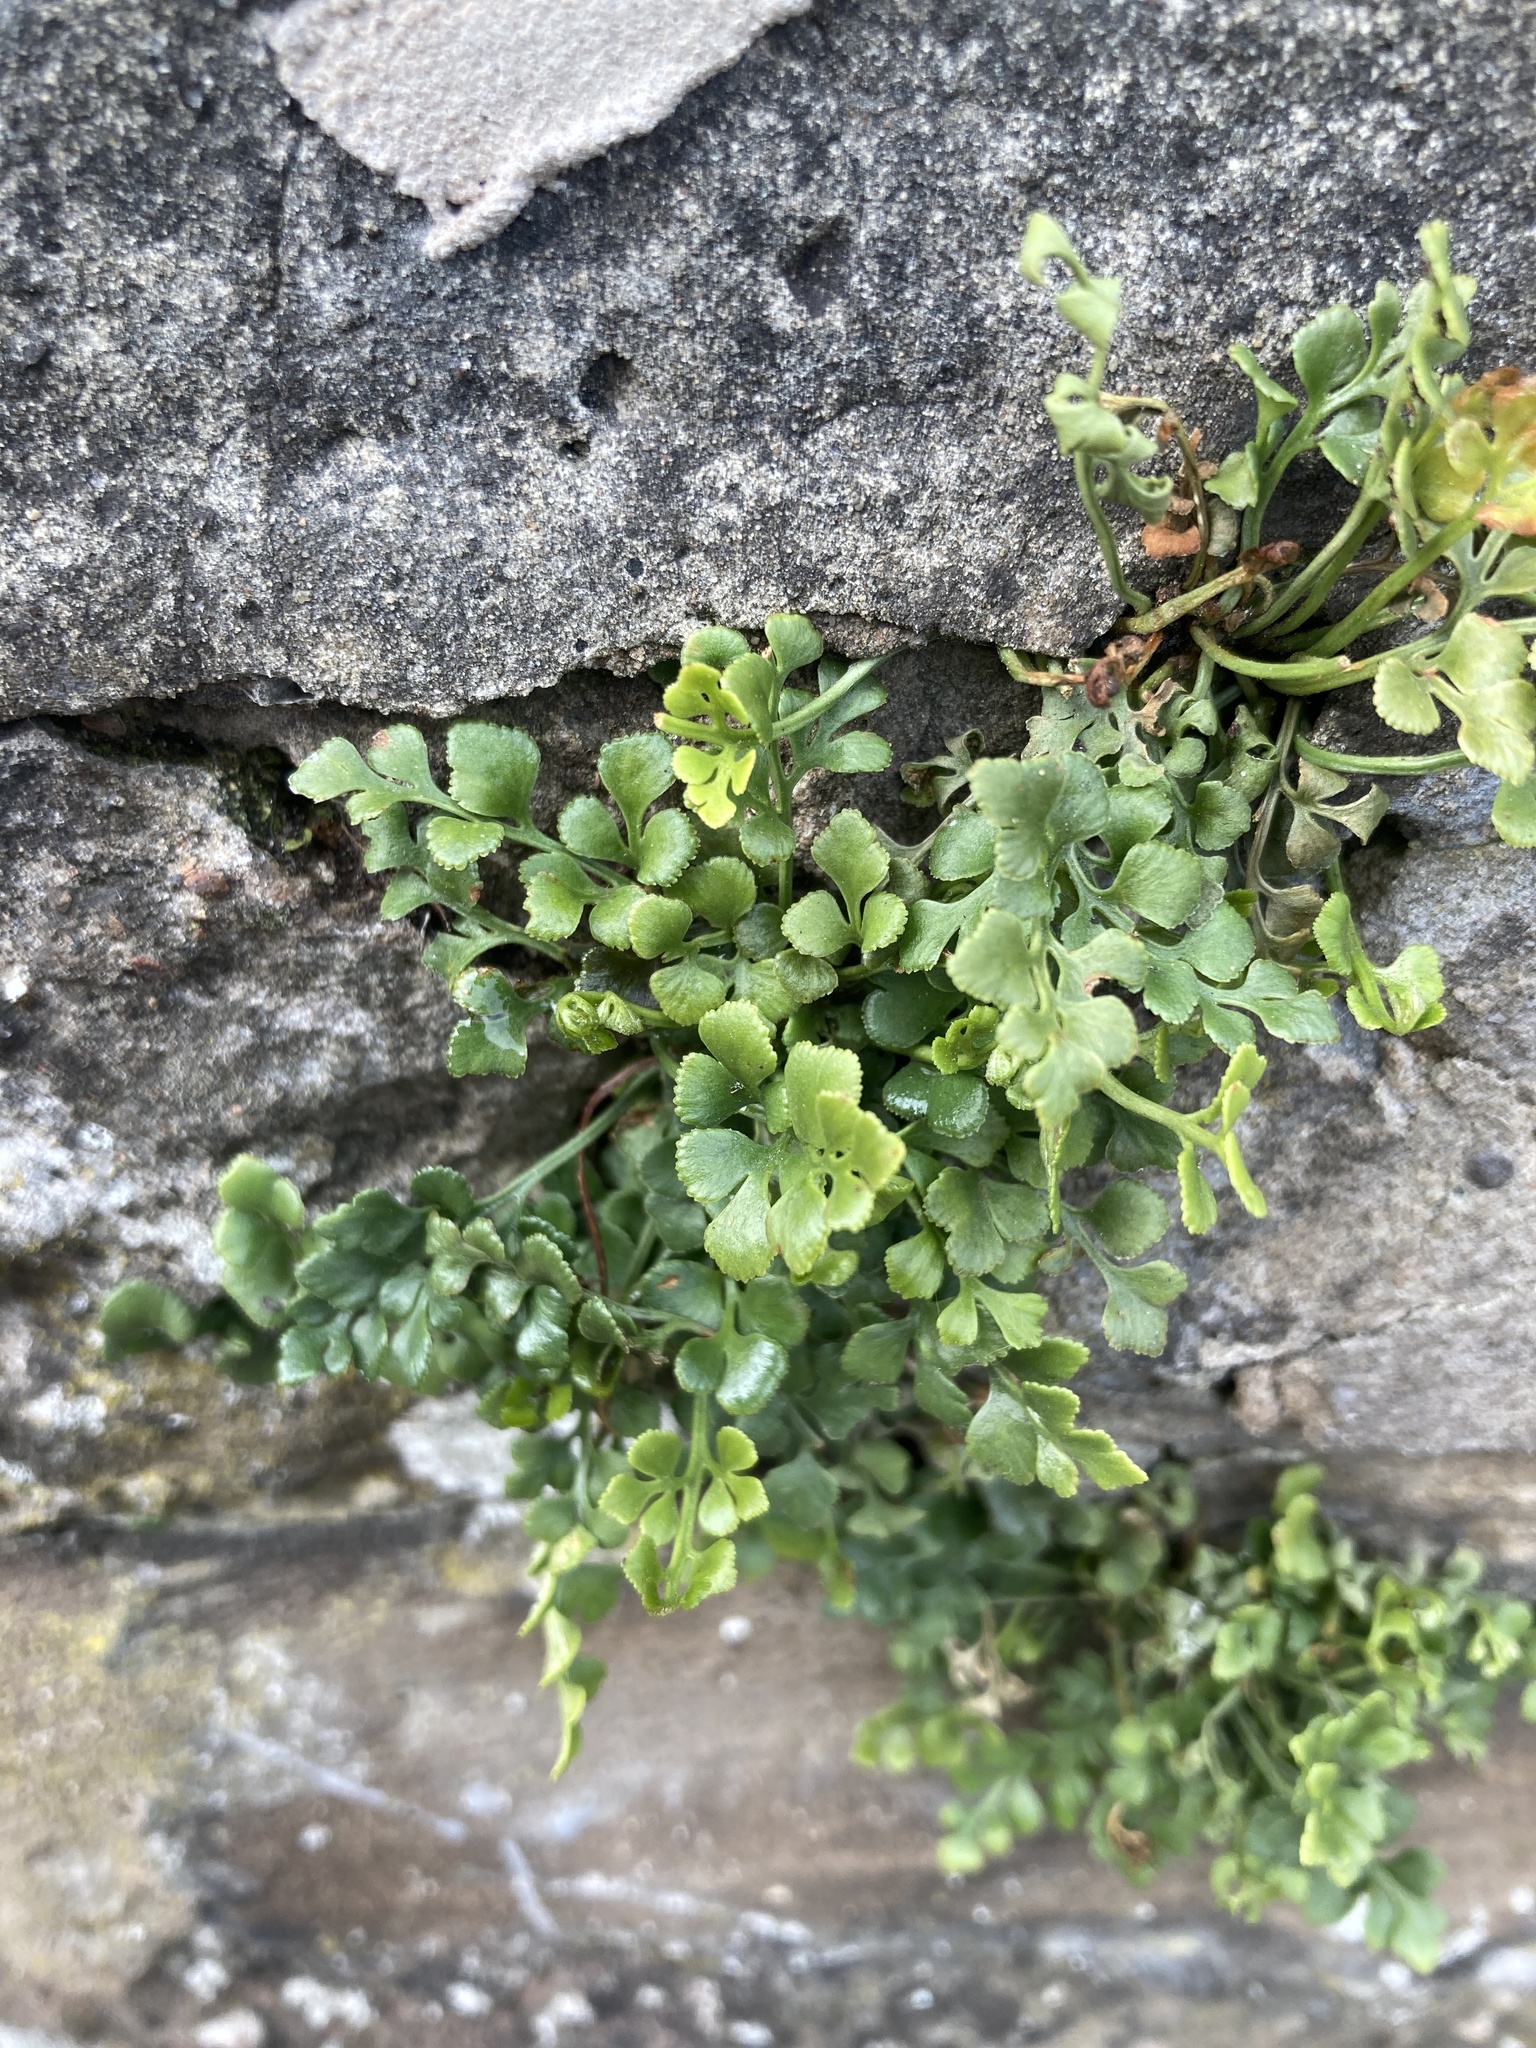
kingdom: Plantae
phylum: Tracheophyta
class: Polypodiopsida
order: Polypodiales
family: Aspleniaceae
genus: Asplenium
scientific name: Asplenium ruta-muraria
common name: Wall-rue
